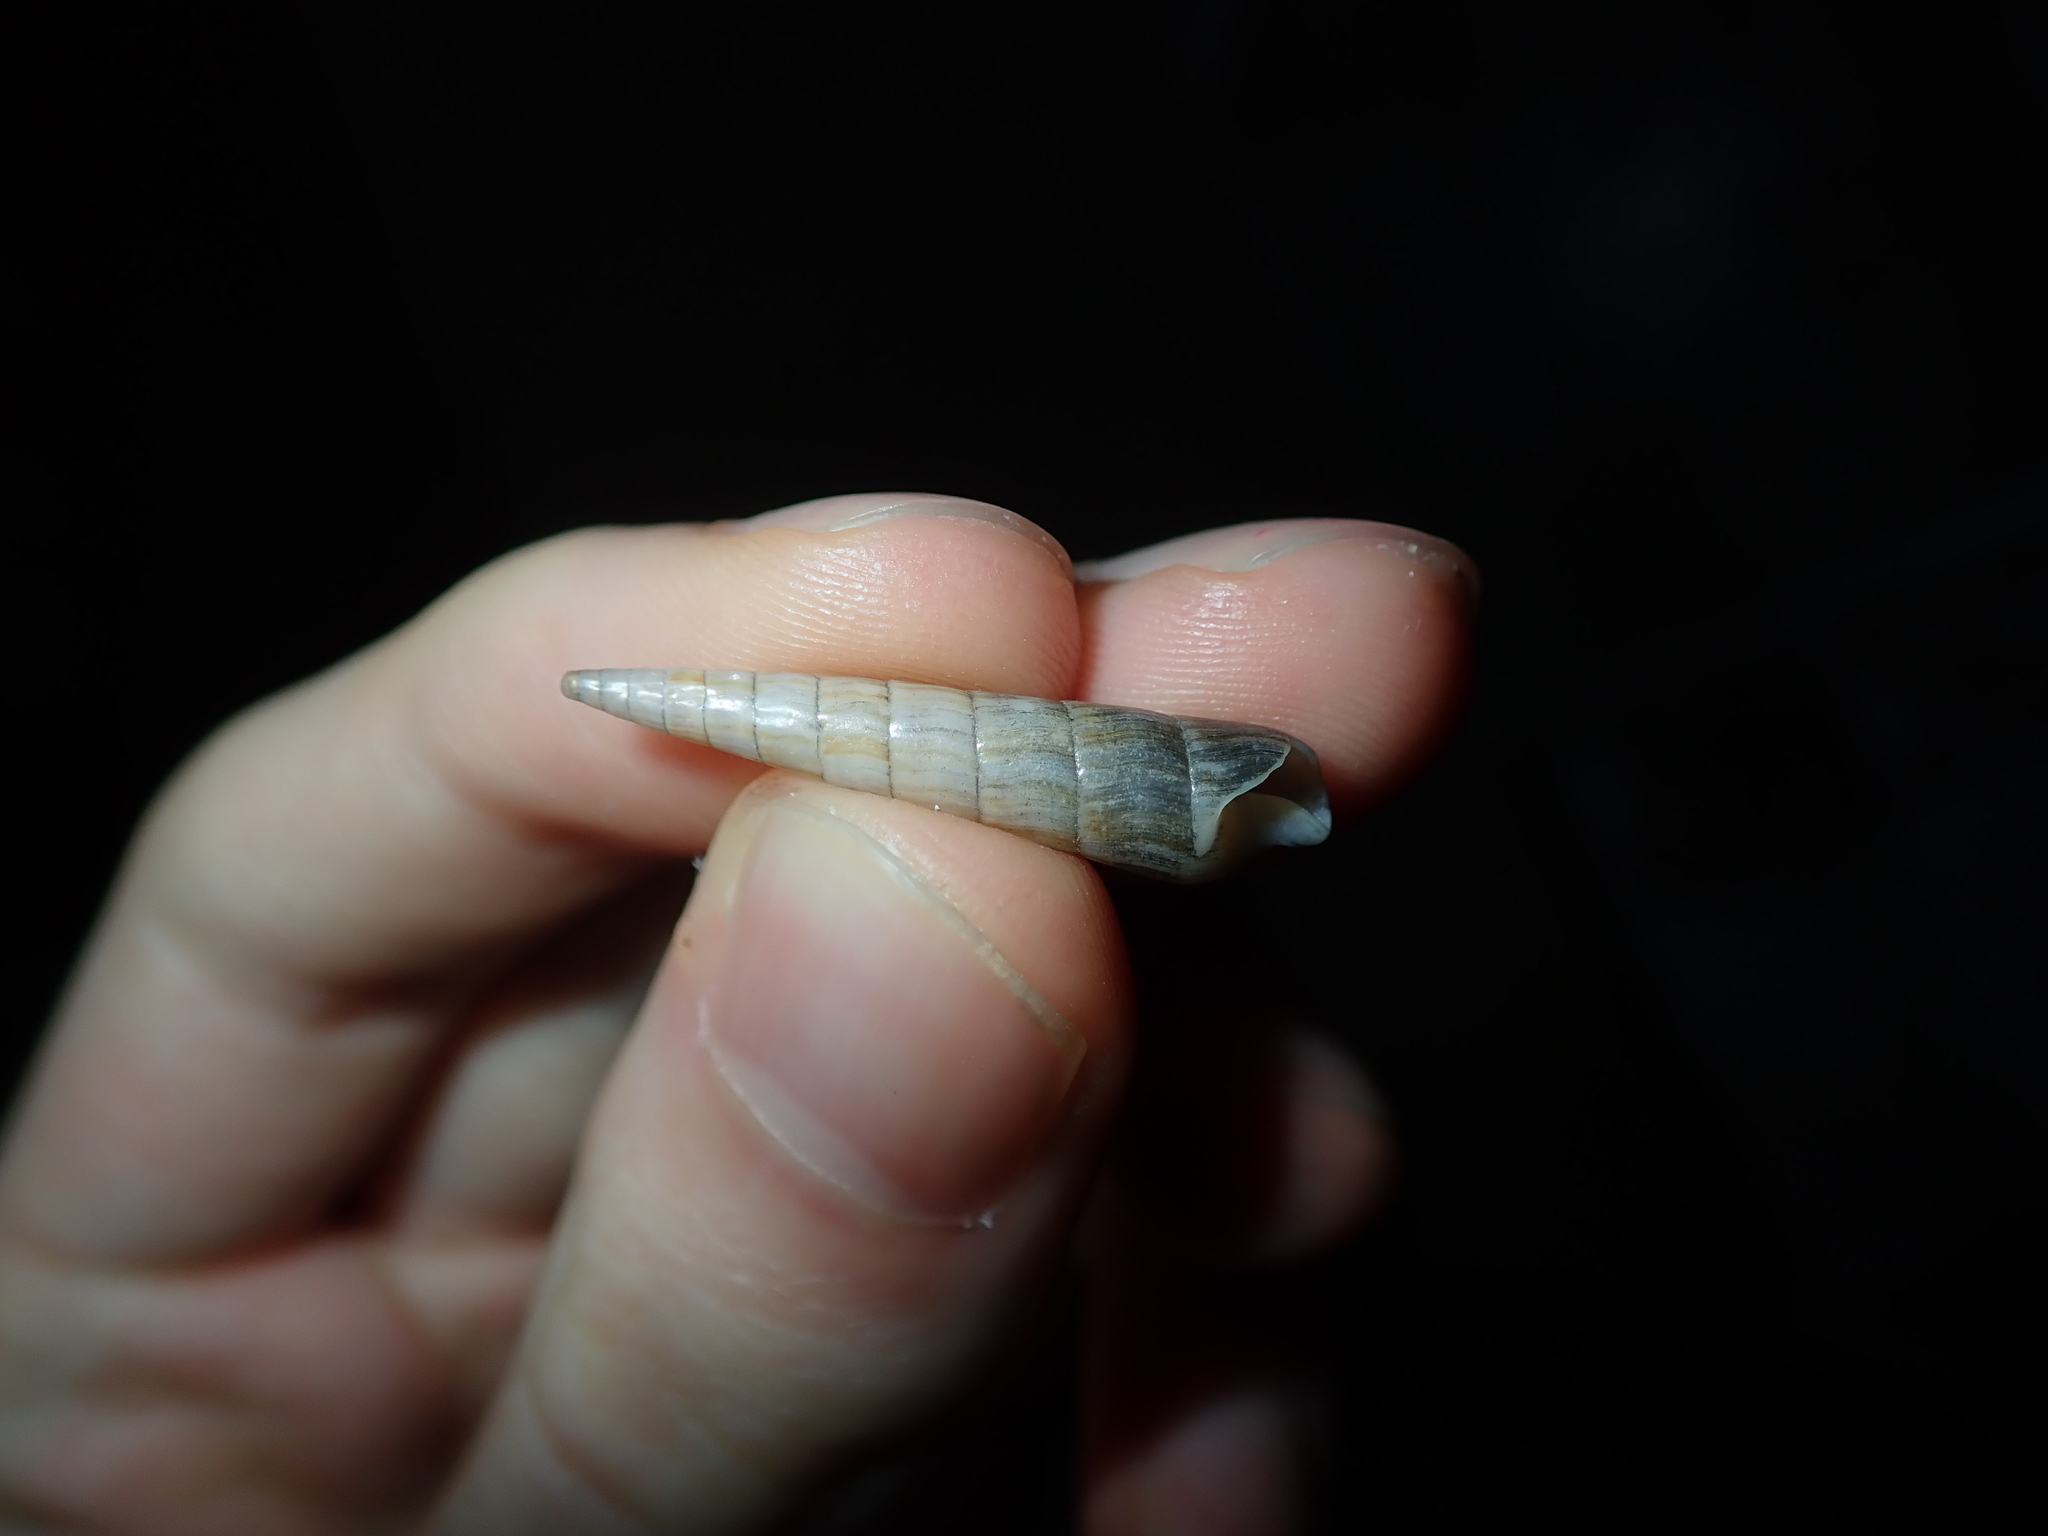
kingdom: Animalia
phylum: Mollusca
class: Gastropoda
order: Neogastropoda
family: Terebridae
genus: Profunditerebra
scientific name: Profunditerebra brazieri
